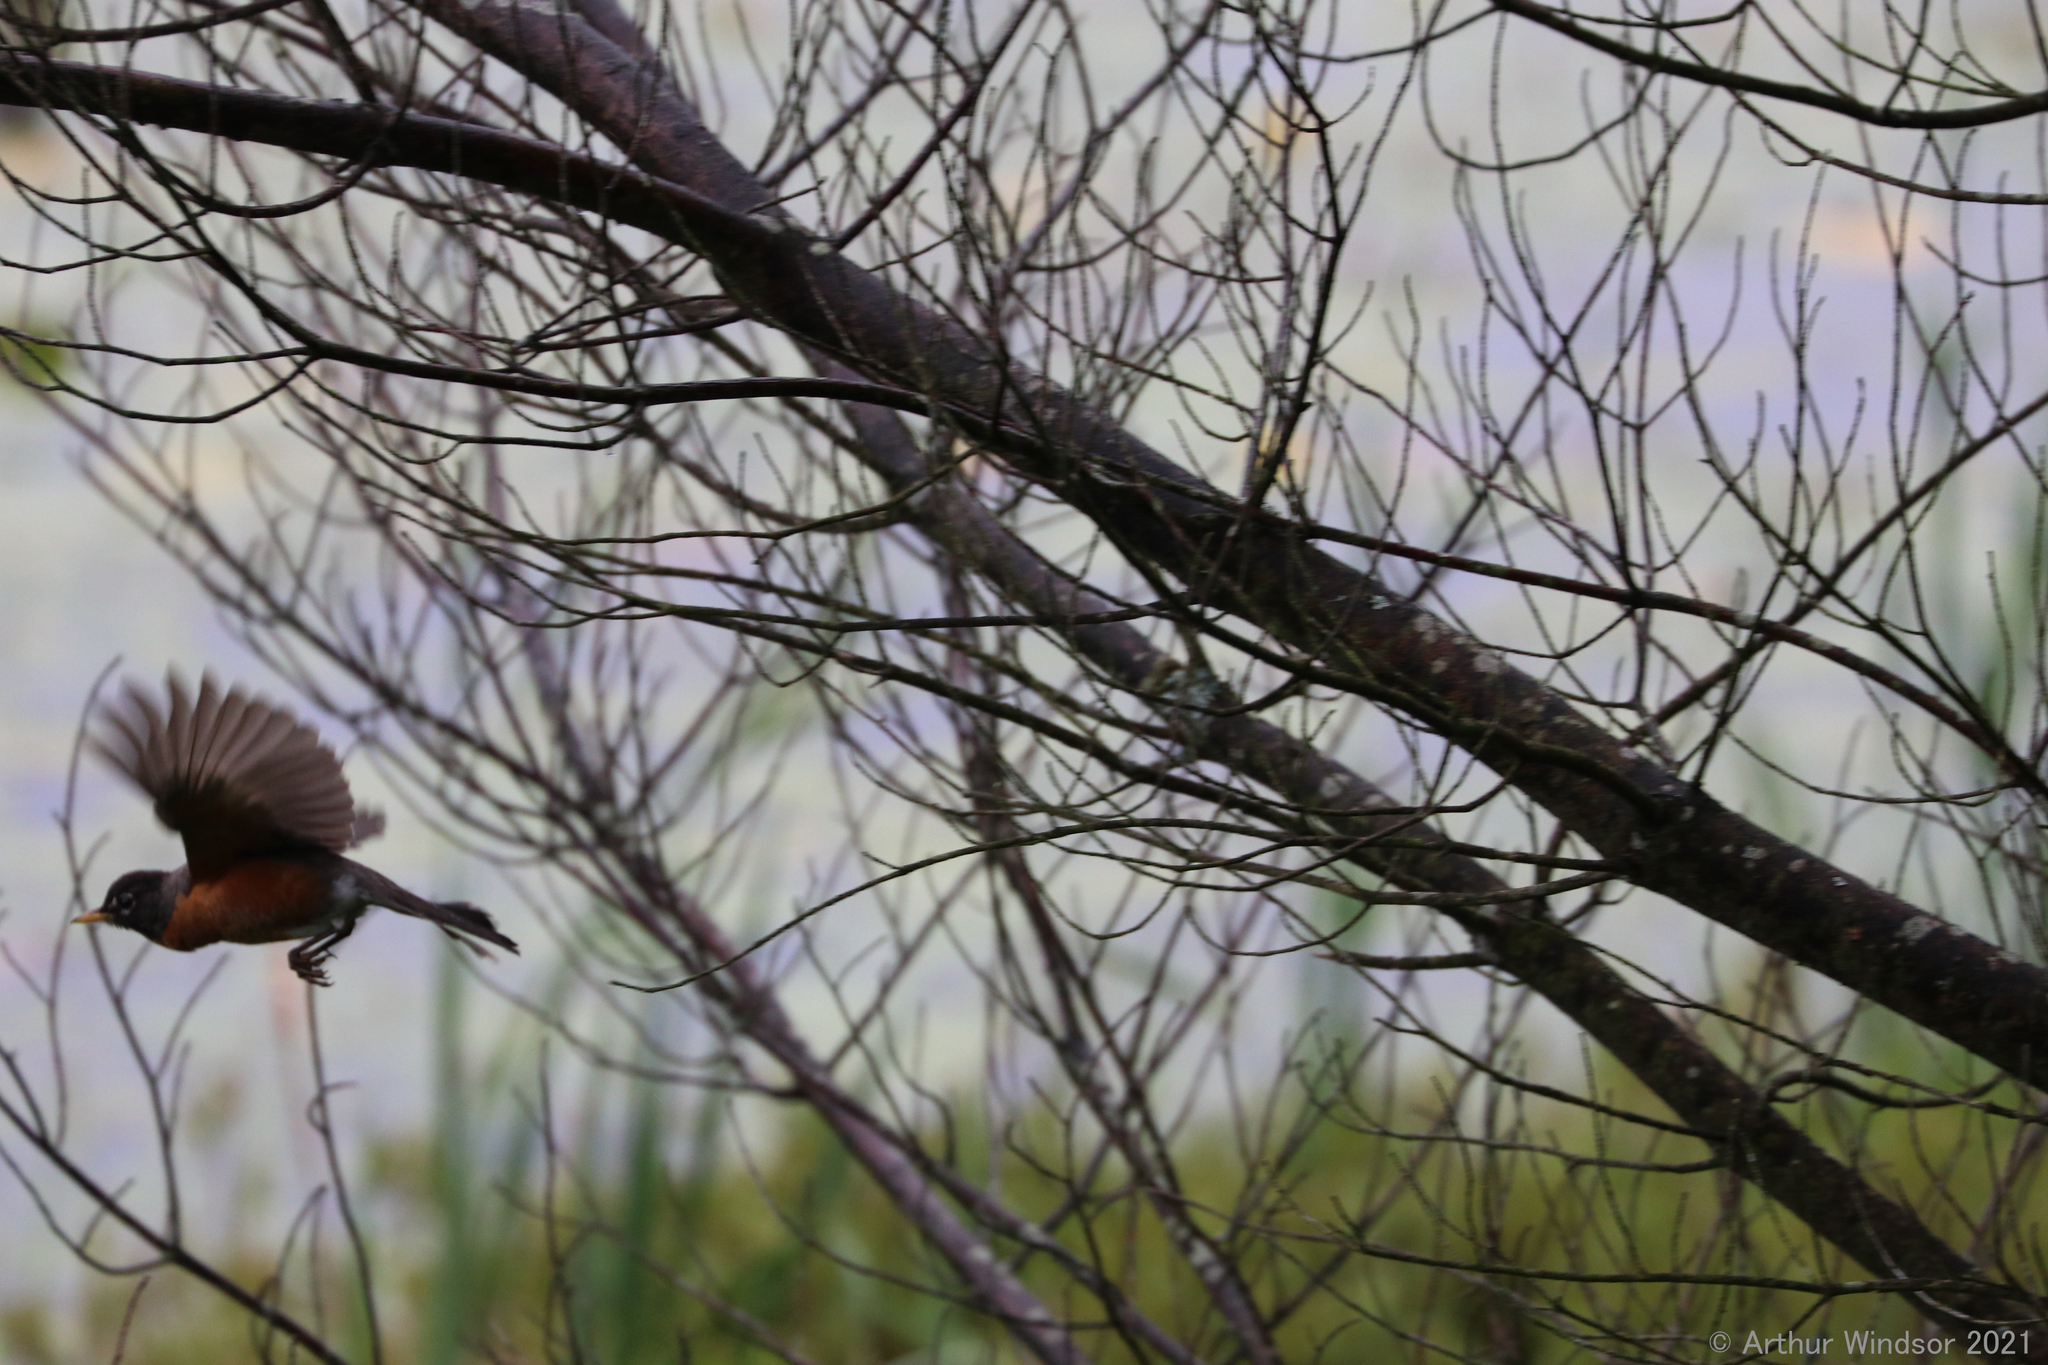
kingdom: Animalia
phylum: Chordata
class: Aves
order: Passeriformes
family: Turdidae
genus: Turdus
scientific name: Turdus migratorius
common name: American robin
